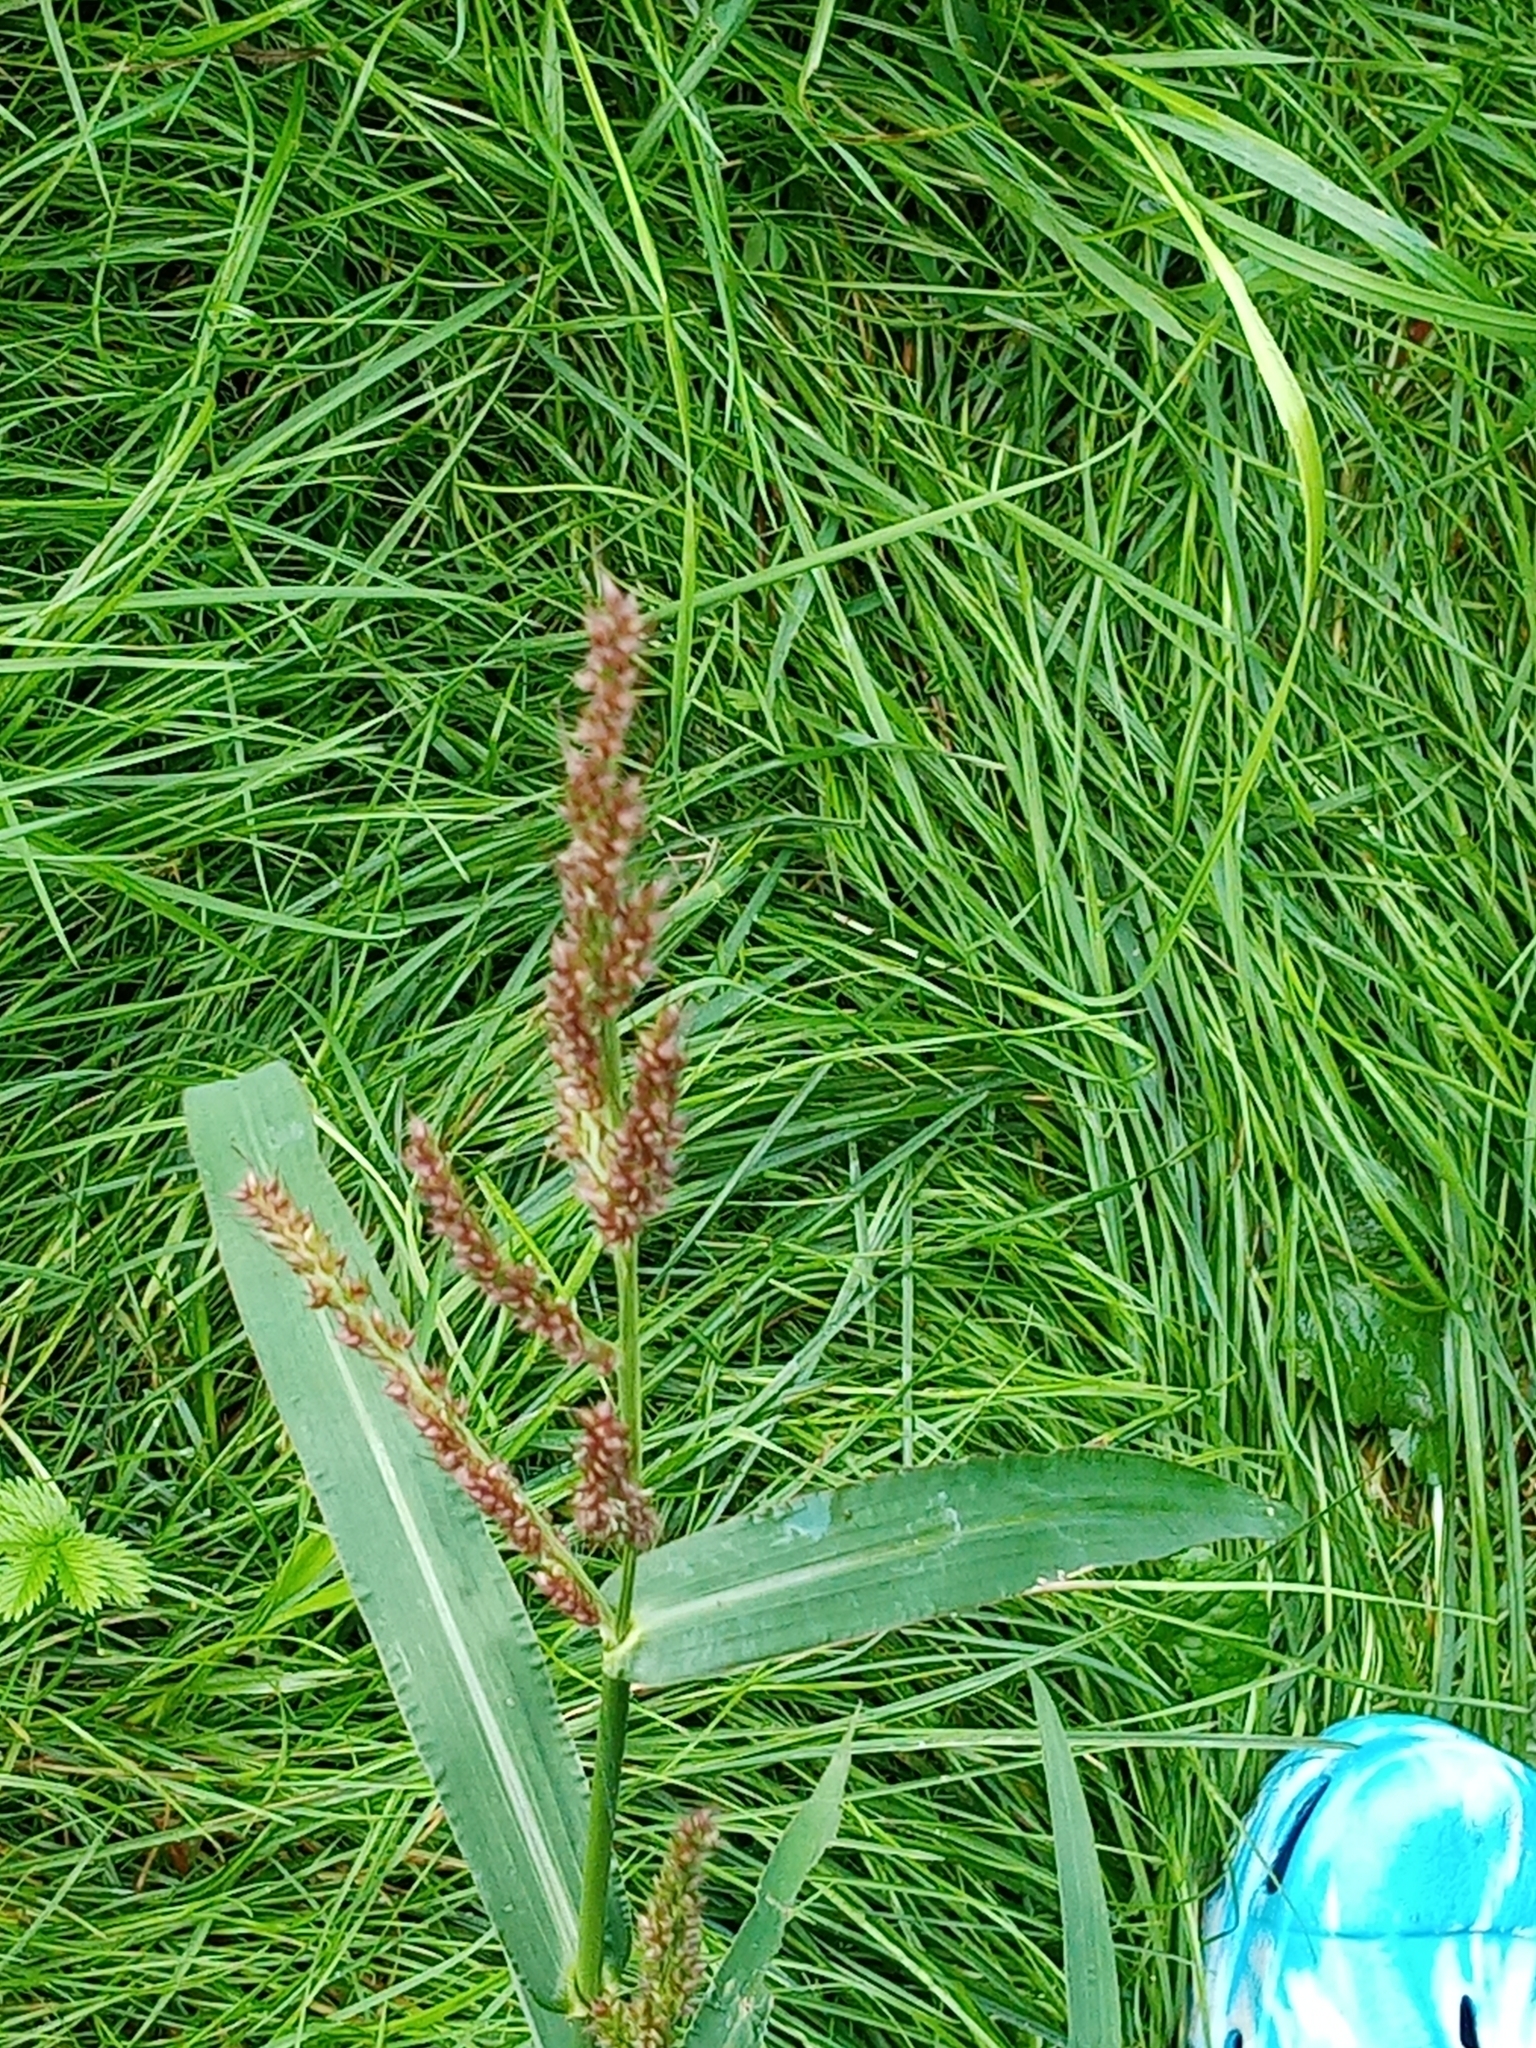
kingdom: Plantae
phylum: Tracheophyta
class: Liliopsida
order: Poales
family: Poaceae
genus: Echinochloa
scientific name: Echinochloa crus-galli
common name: Cockspur
